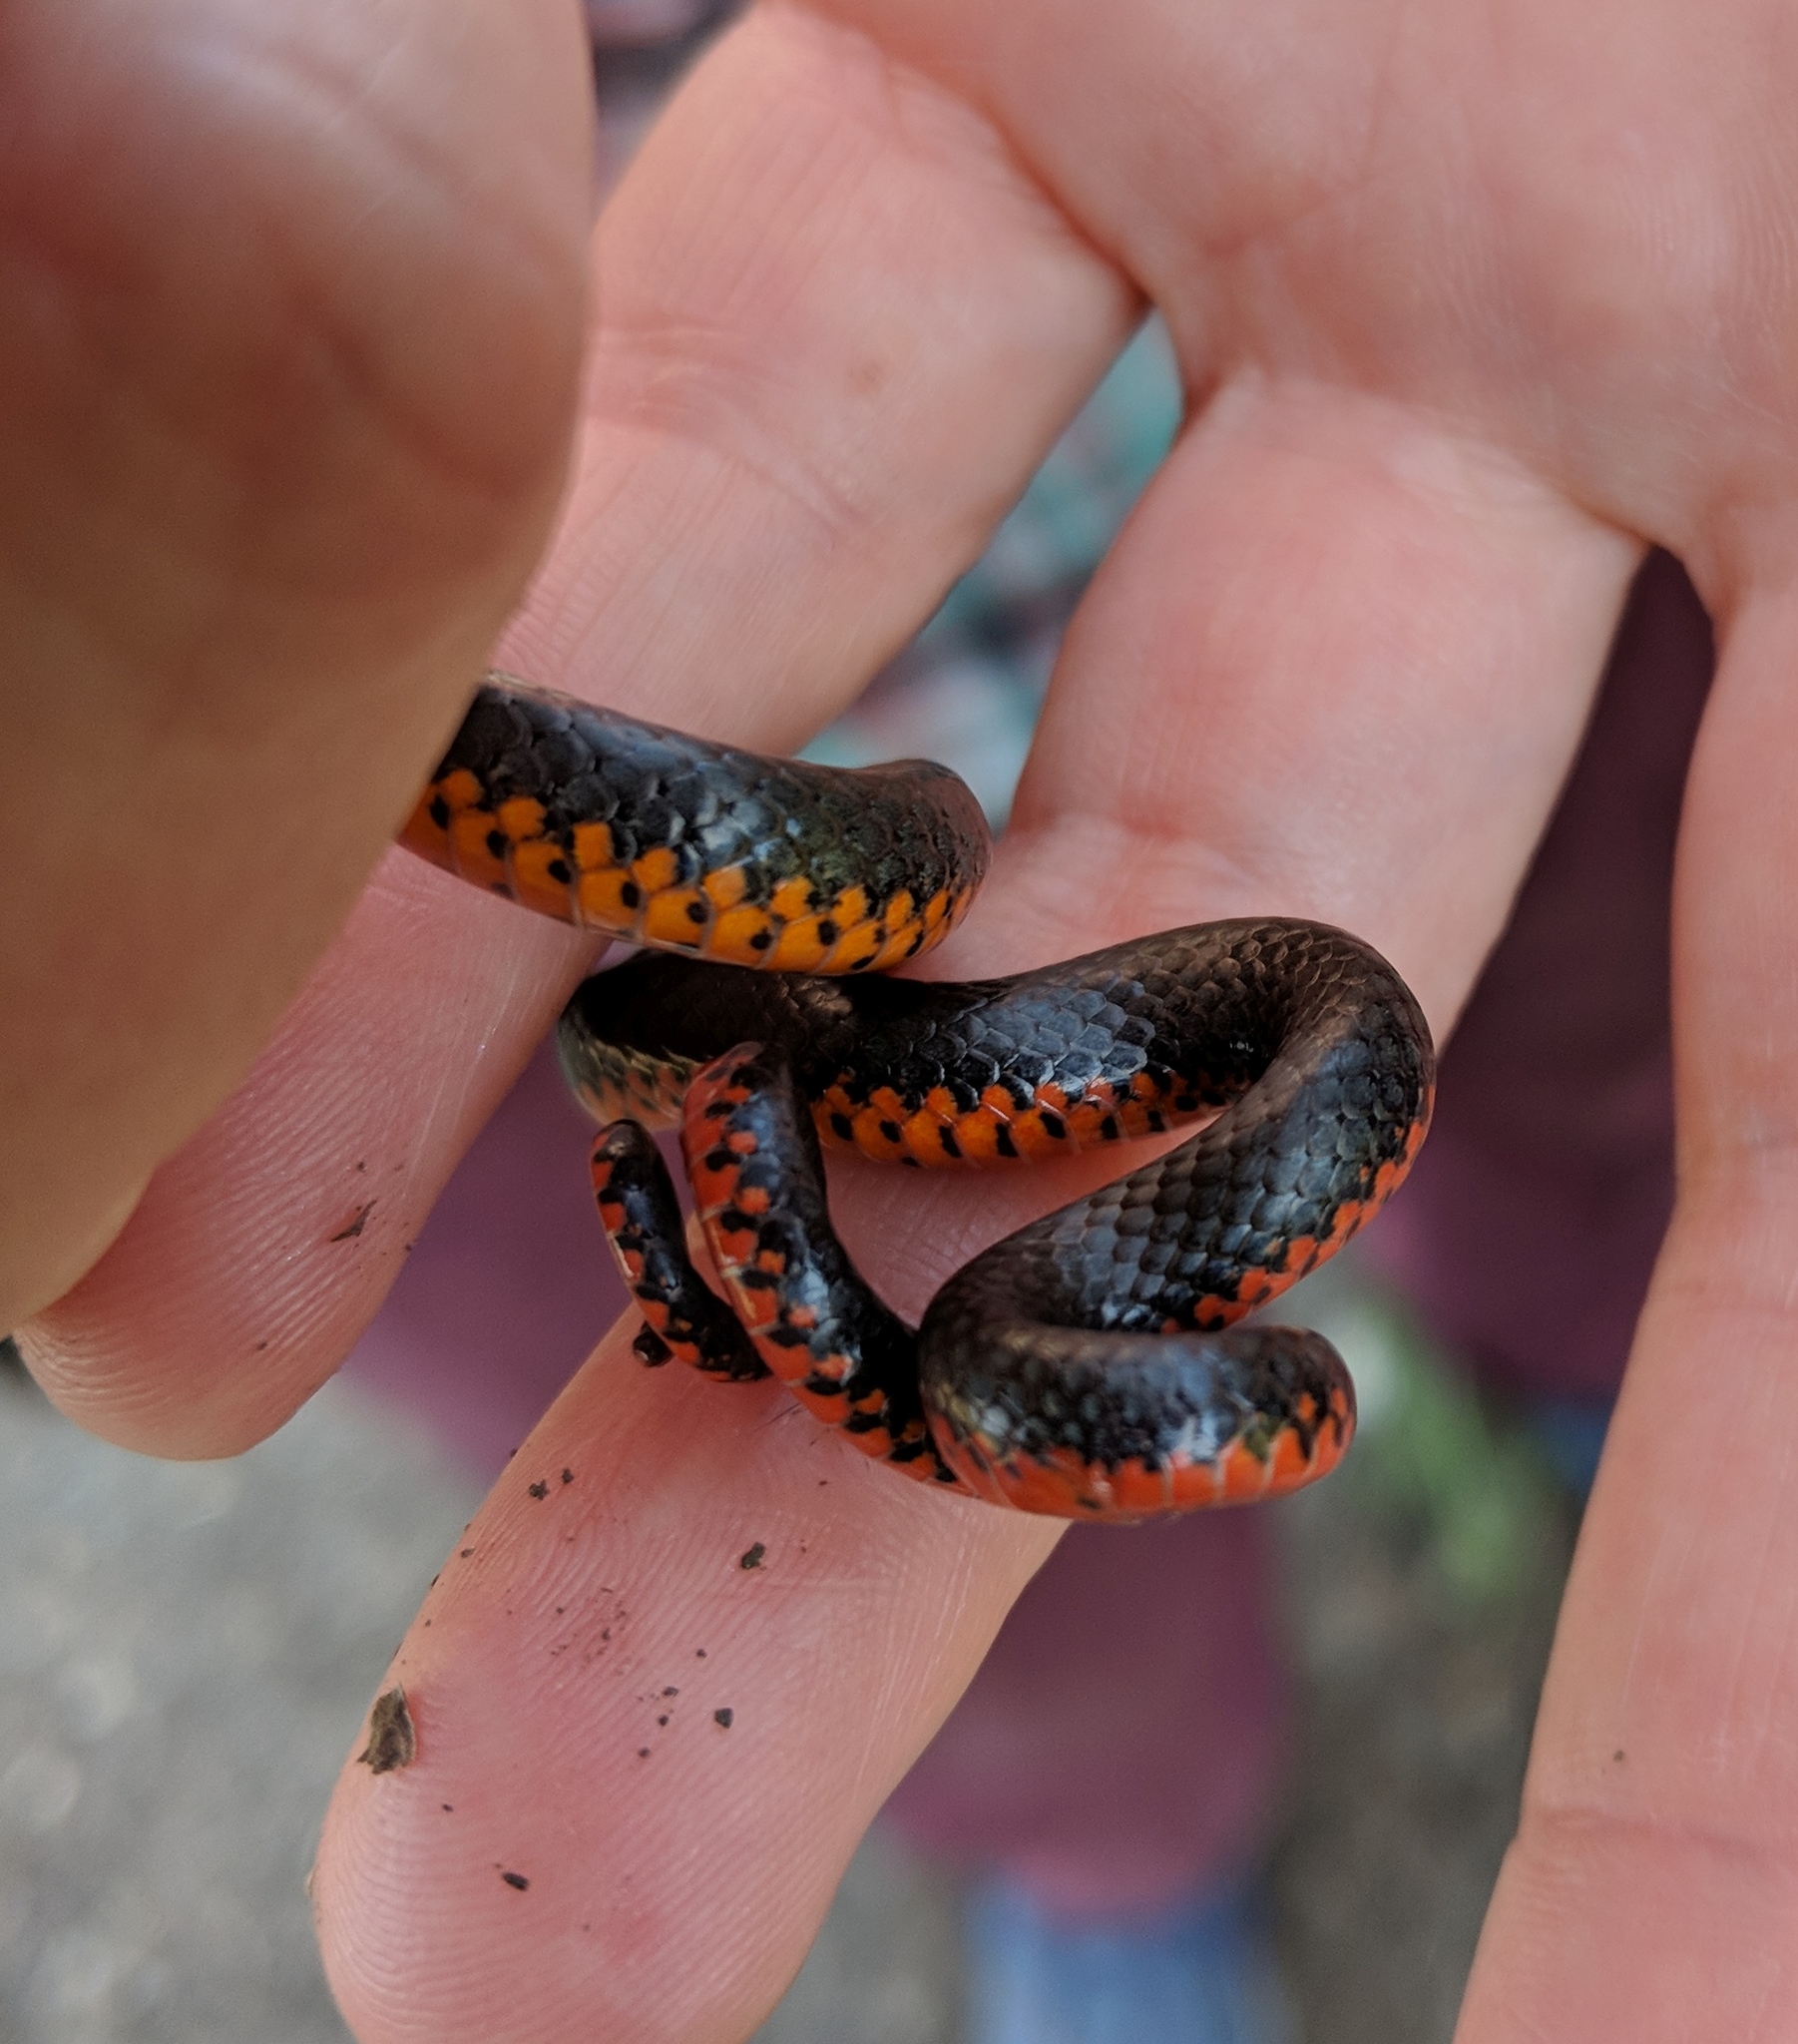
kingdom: Animalia
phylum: Chordata
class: Squamata
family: Colubridae
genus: Diadophis
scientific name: Diadophis punctatus
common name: Ringneck snake
